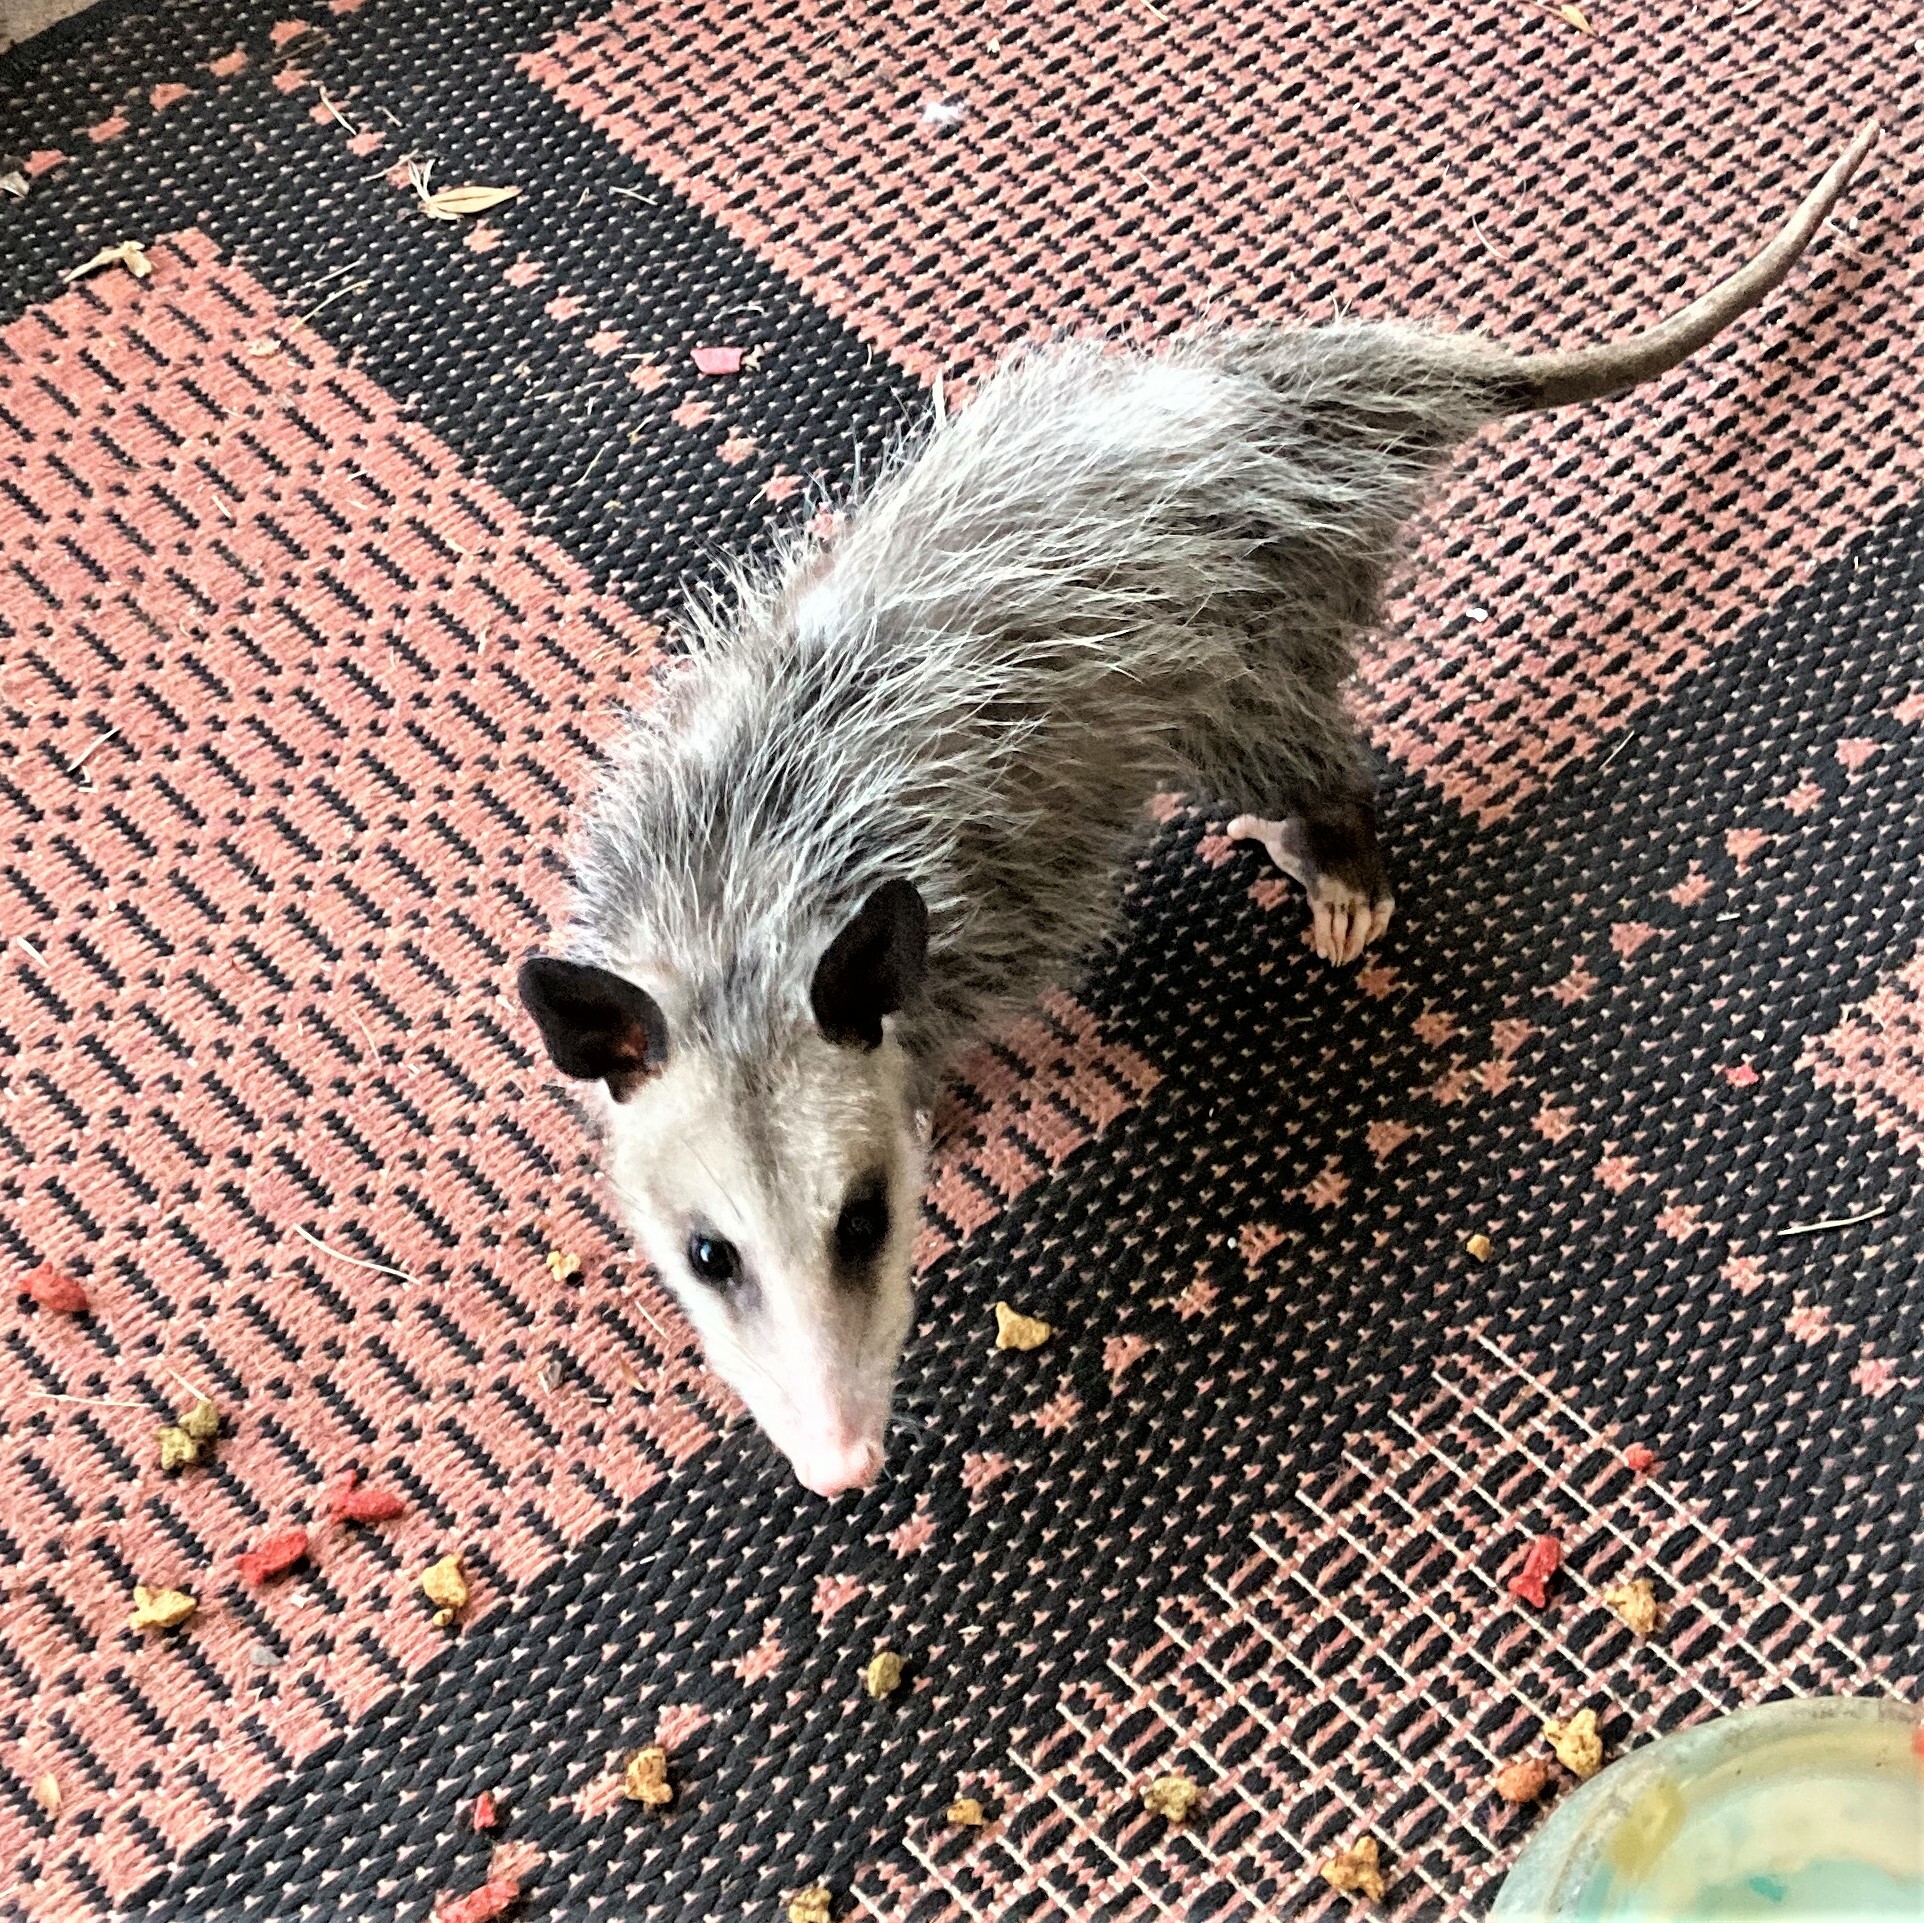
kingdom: Animalia
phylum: Chordata
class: Mammalia
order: Didelphimorphia
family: Didelphidae
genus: Didelphis
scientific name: Didelphis virginiana
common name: Virginia opossum
